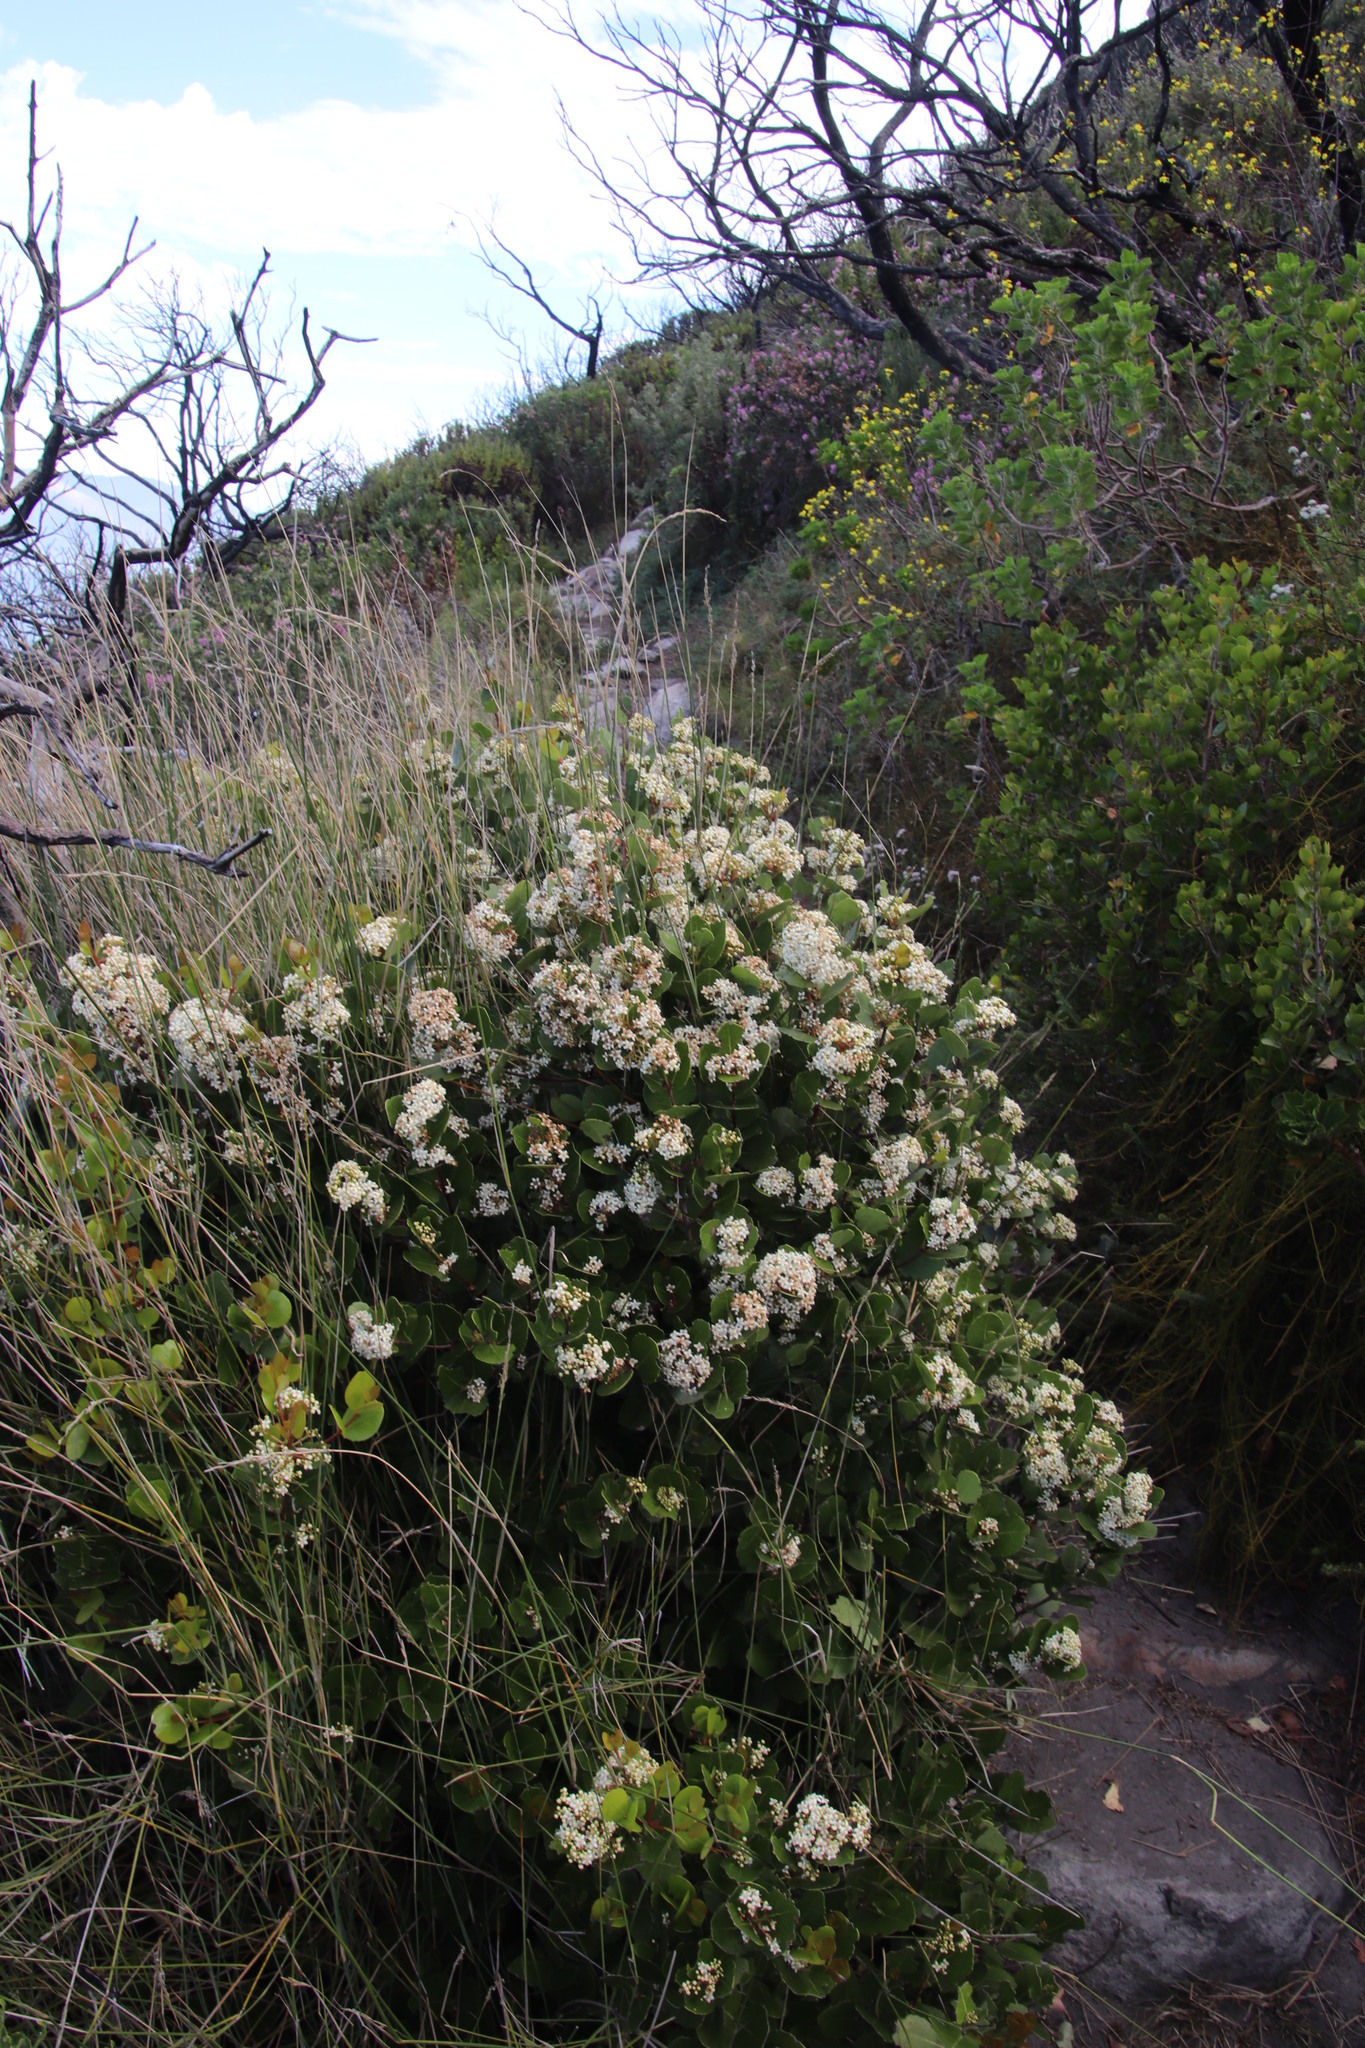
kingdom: Plantae
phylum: Tracheophyta
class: Magnoliopsida
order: Celastrales
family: Celastraceae
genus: Cassine
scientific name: Cassine peragua
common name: Cape saffron
